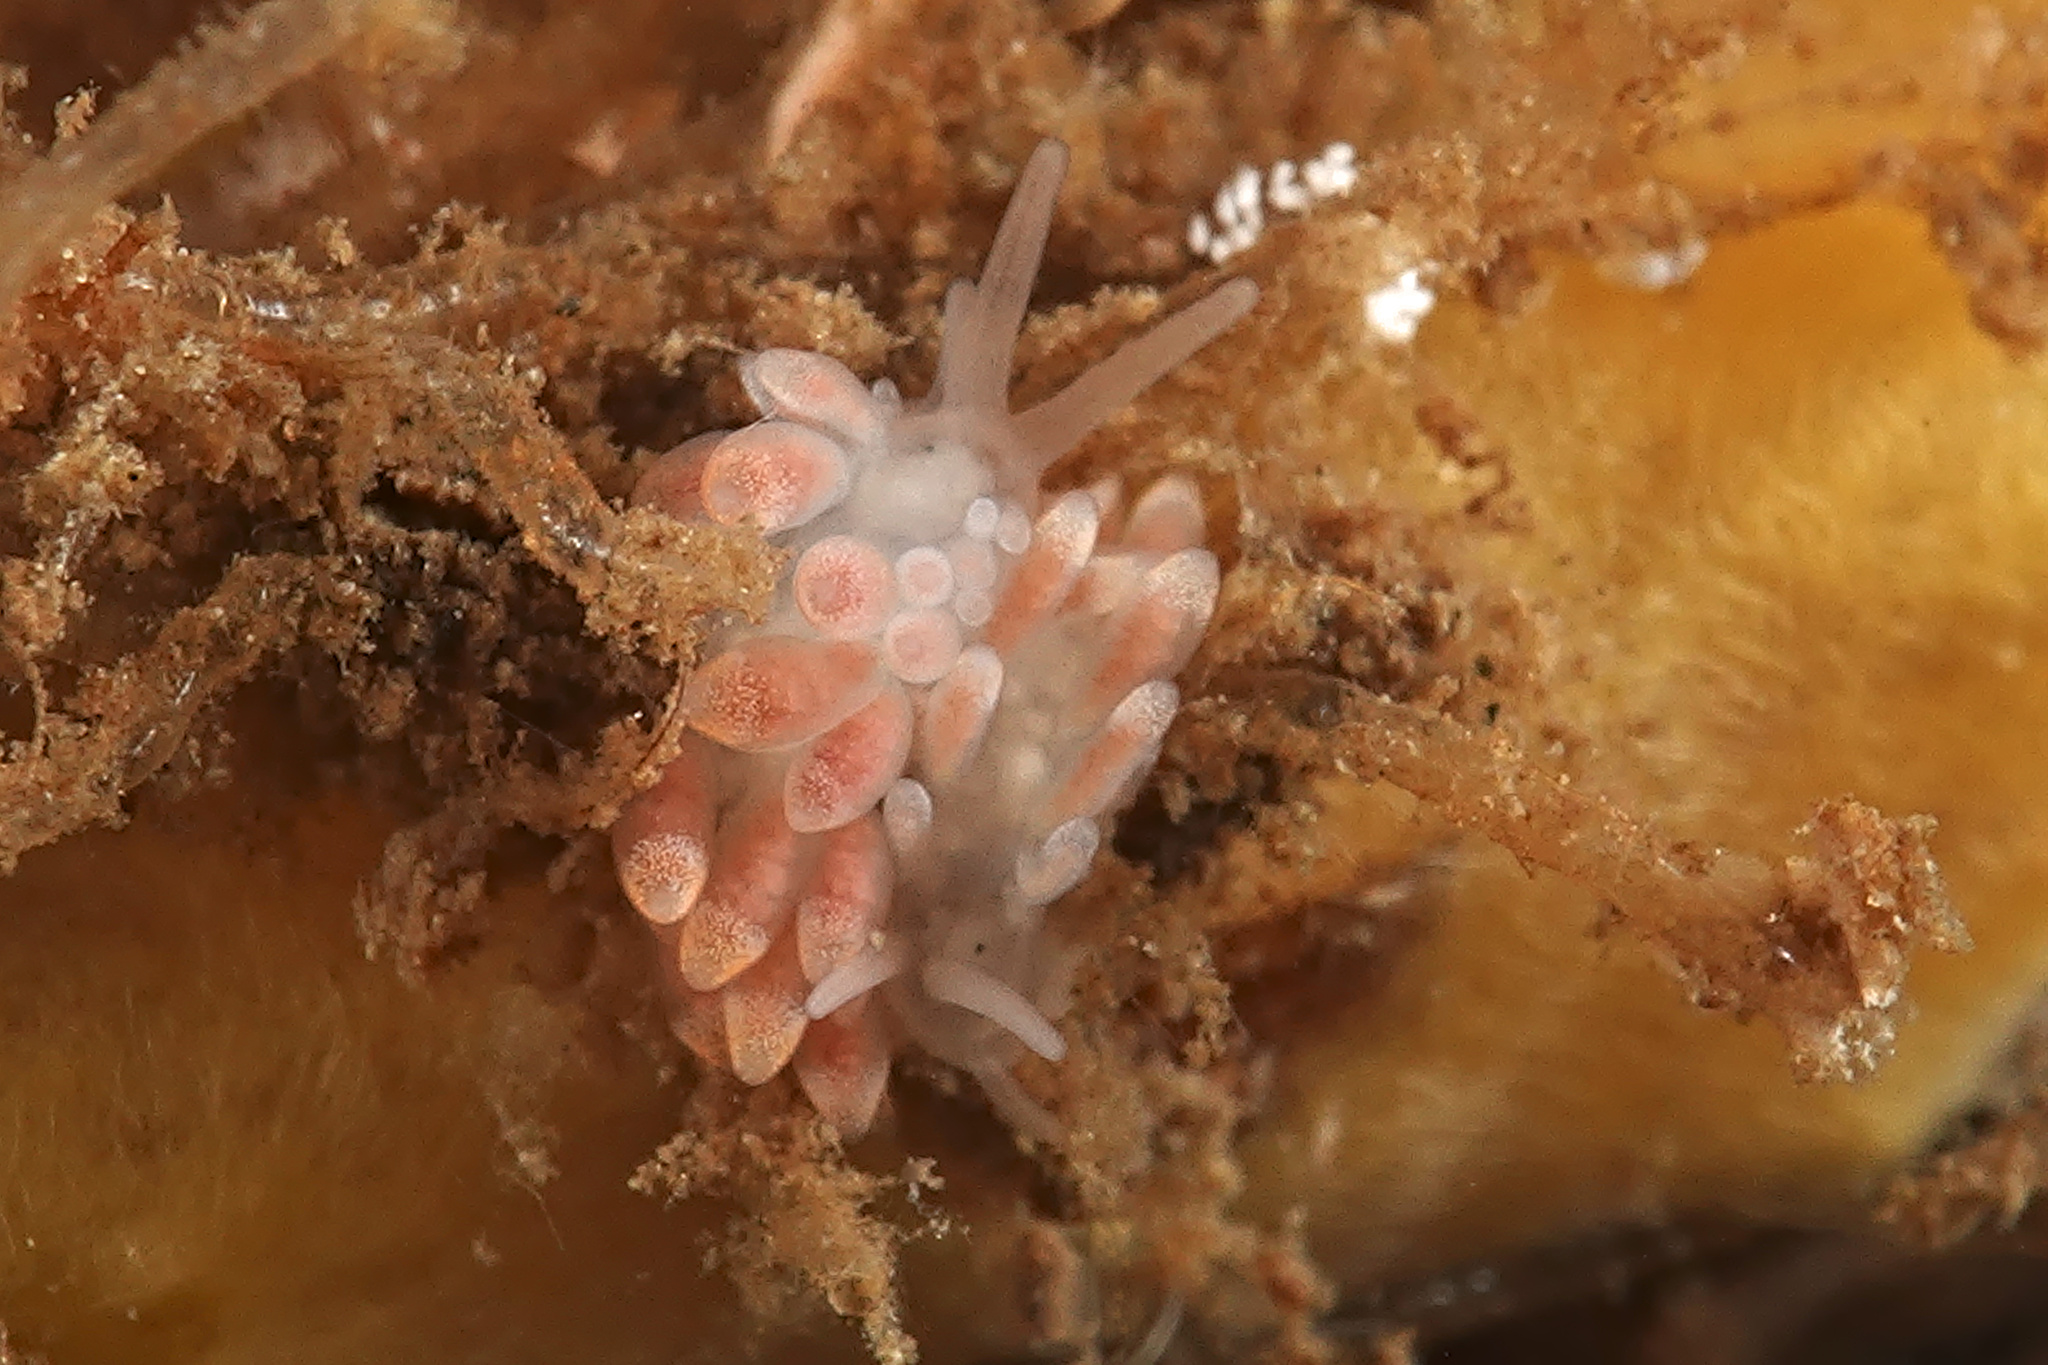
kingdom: Animalia
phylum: Mollusca
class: Gastropoda
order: Nudibranchia
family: Trinchesiidae
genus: Catriona
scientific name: Catriona aurantia
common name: Corange-tip cuthona
